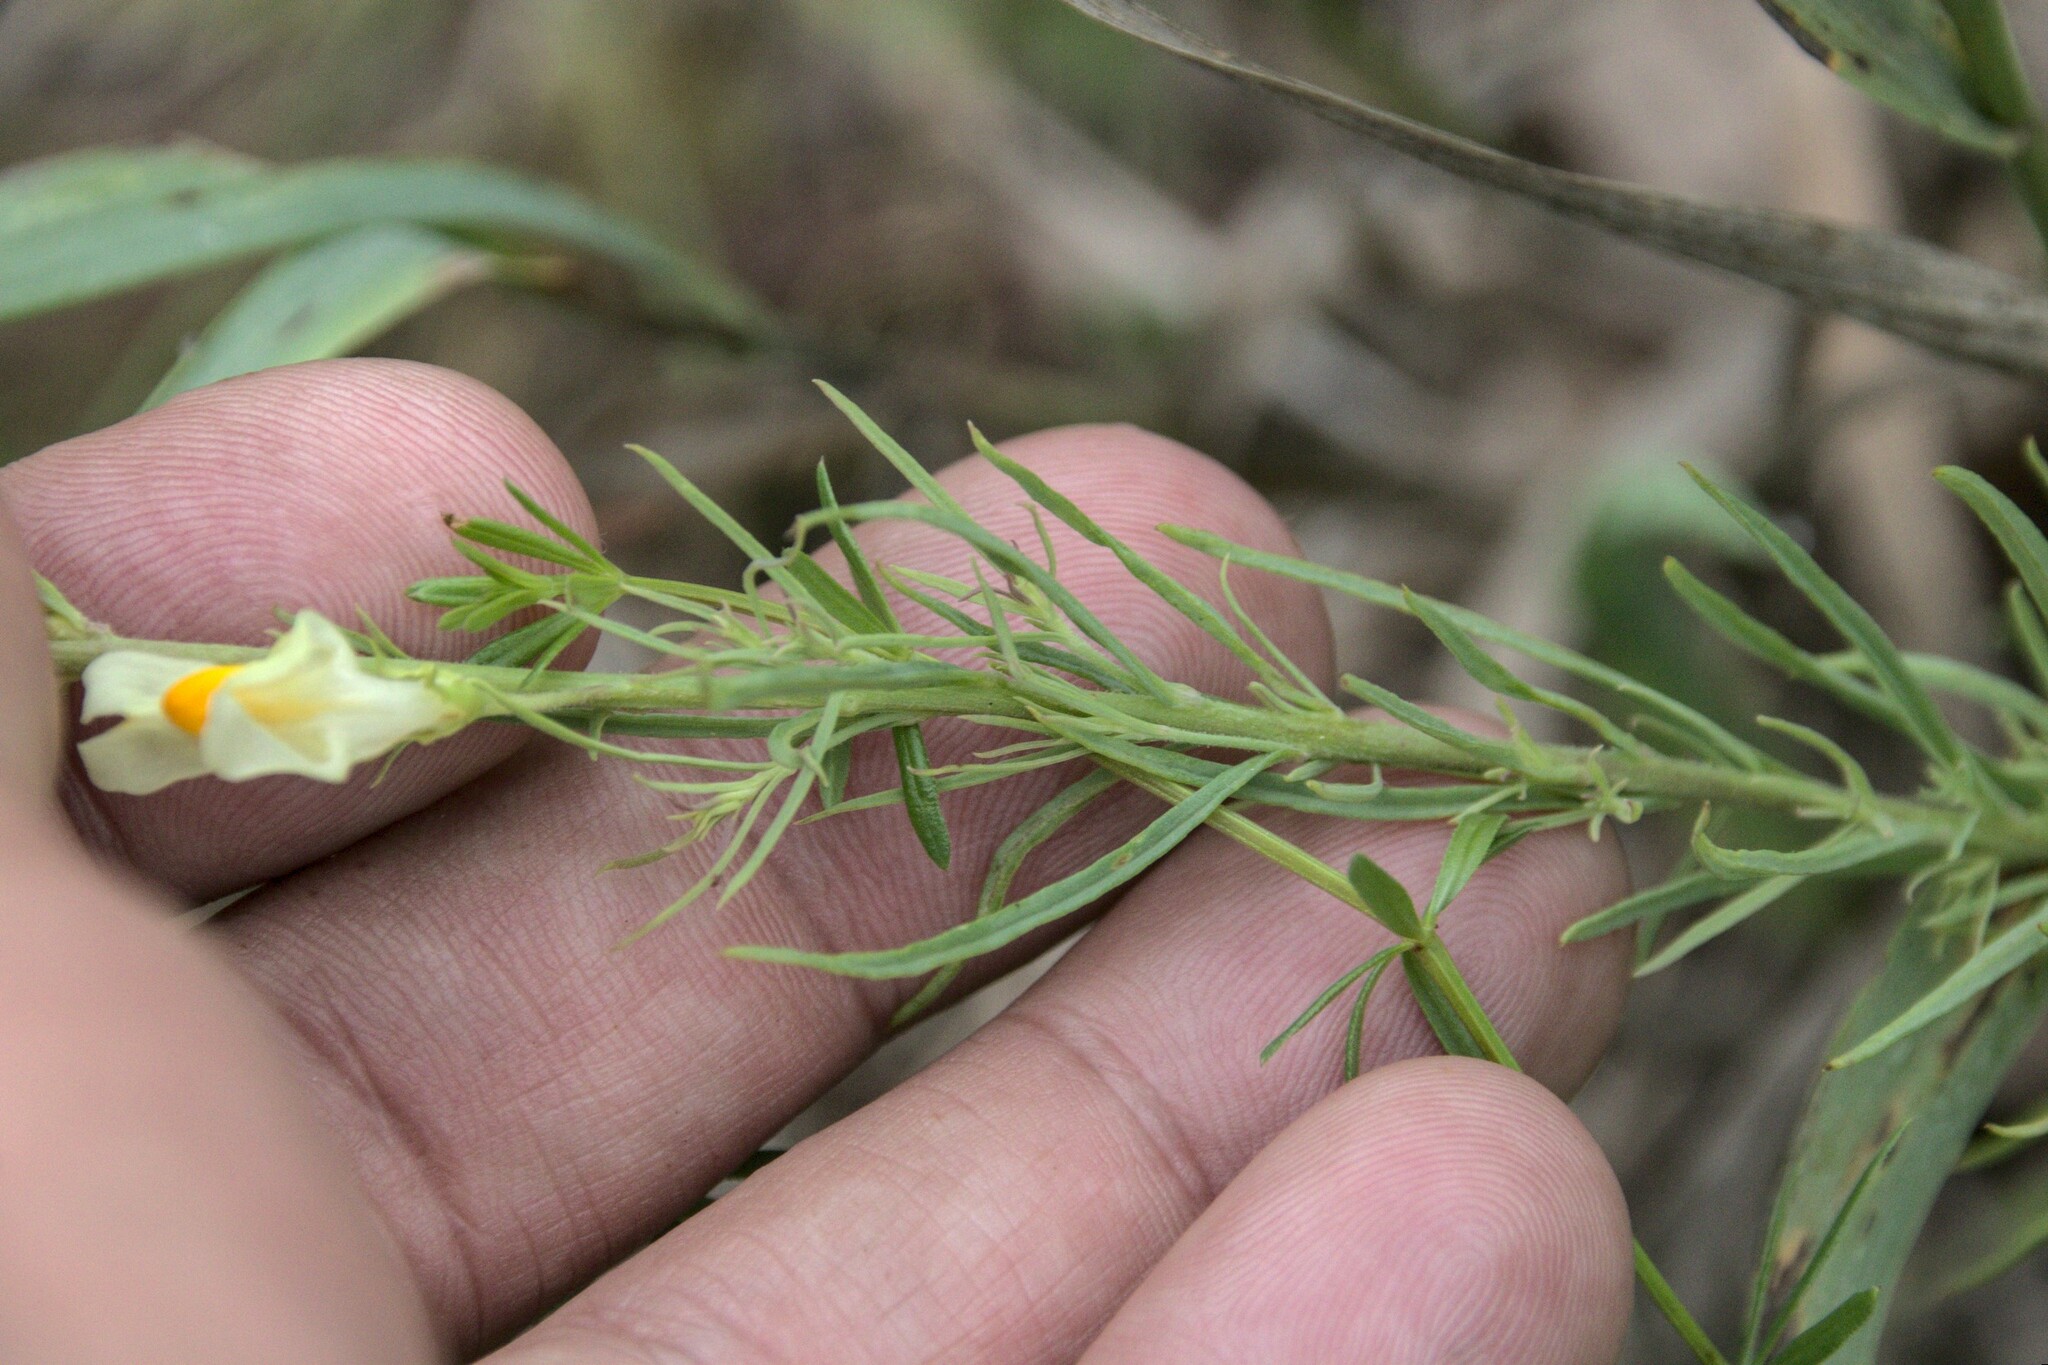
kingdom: Plantae
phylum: Tracheophyta
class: Magnoliopsida
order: Lamiales
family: Plantaginaceae
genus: Linaria
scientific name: Linaria vulgaris
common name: Butter and eggs
